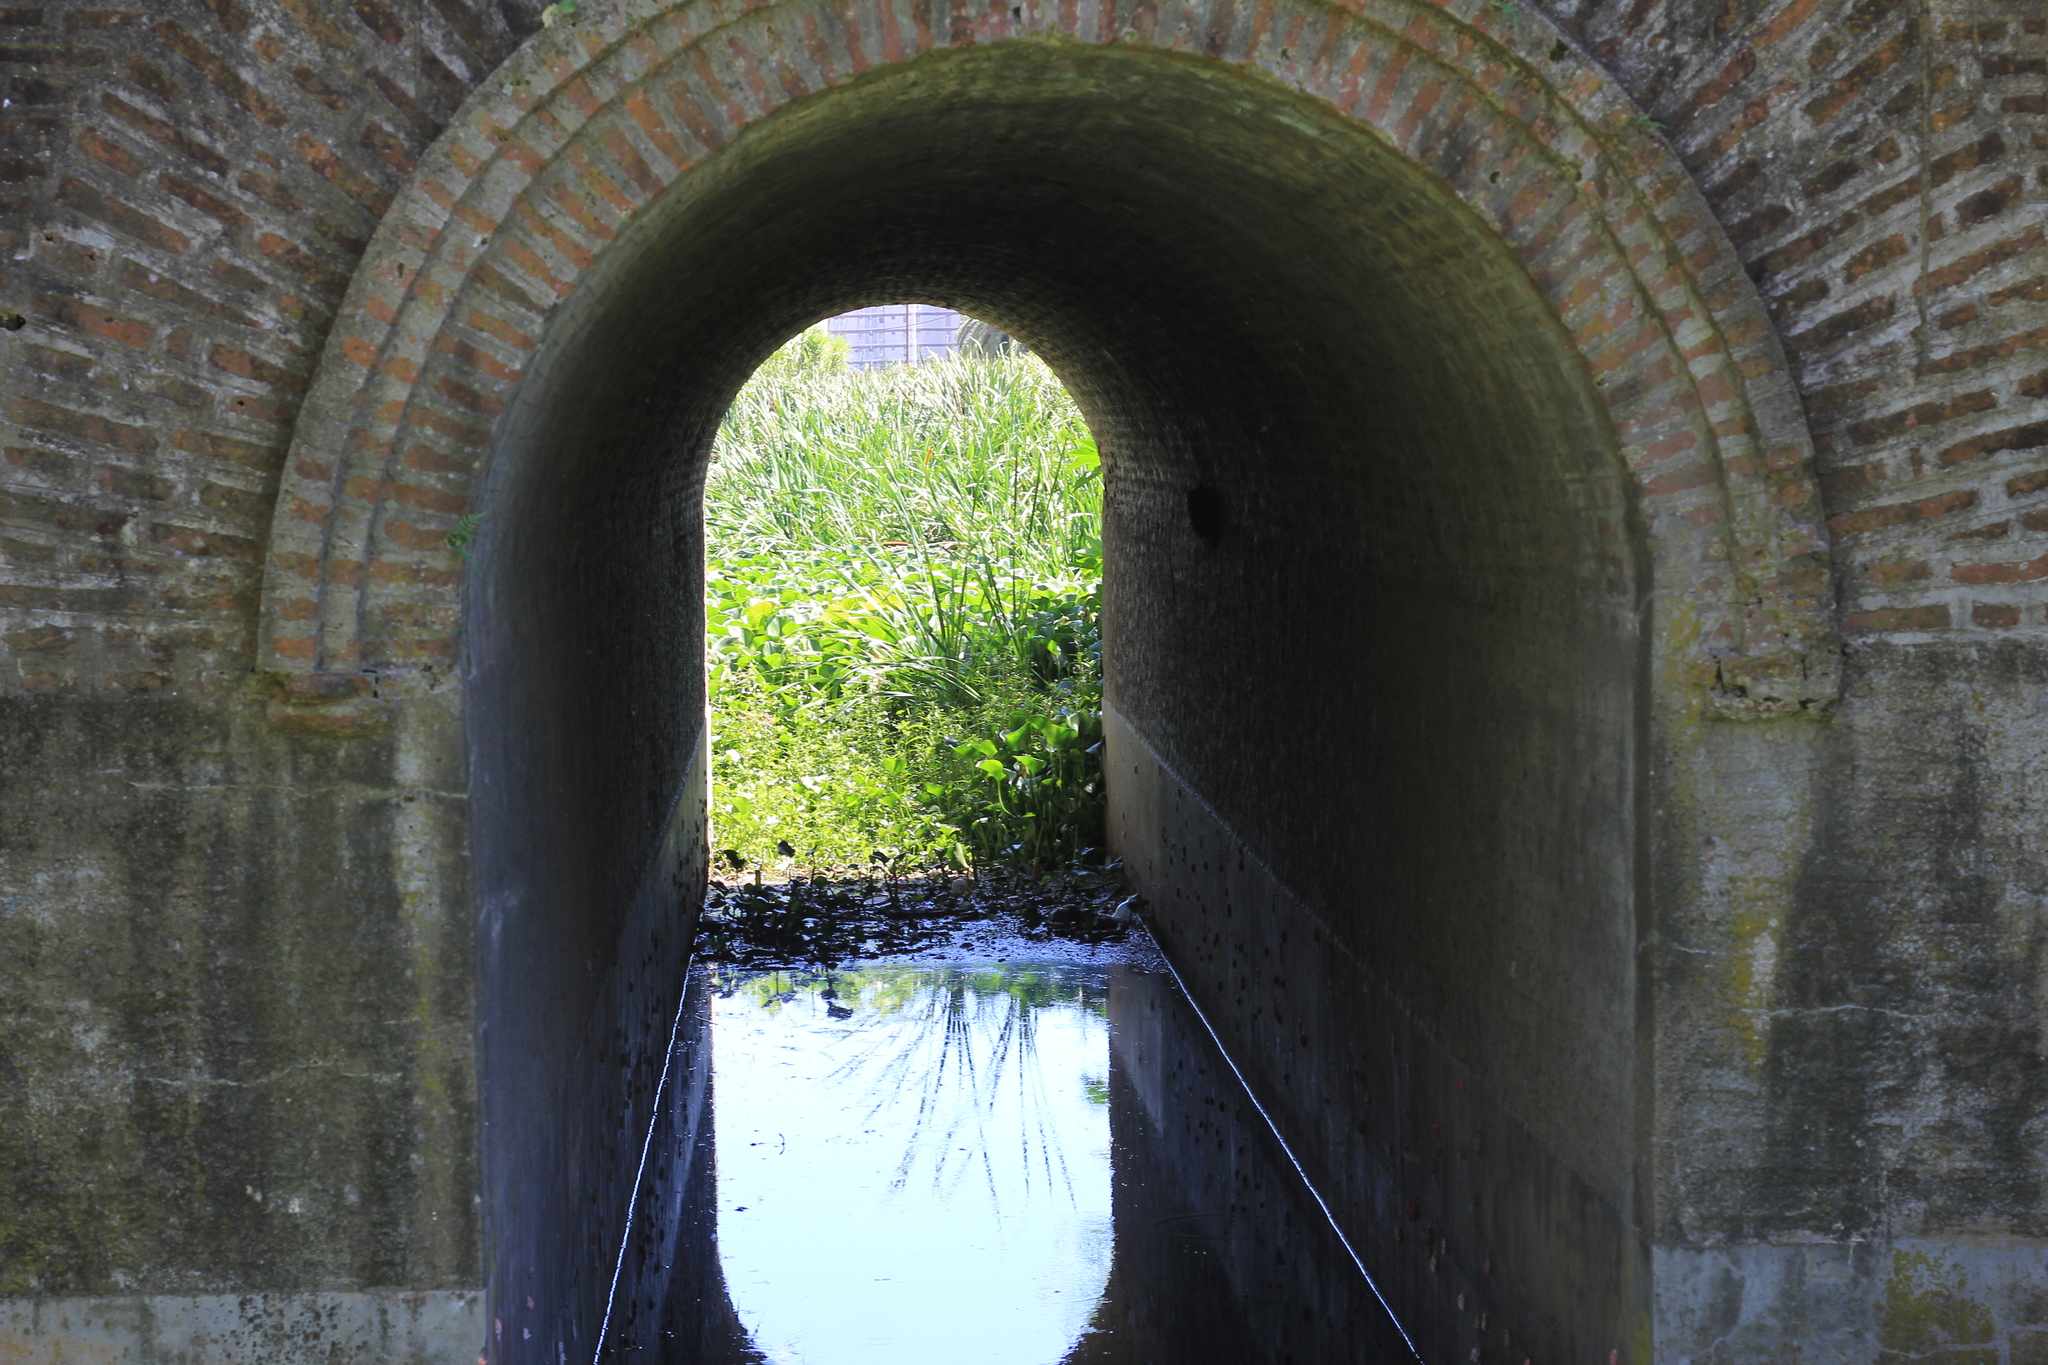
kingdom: Animalia
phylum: Chordata
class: Aves
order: Passeriformes
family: Hirundinidae
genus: Hirundo
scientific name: Hirundo rustica
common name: Barn swallow
